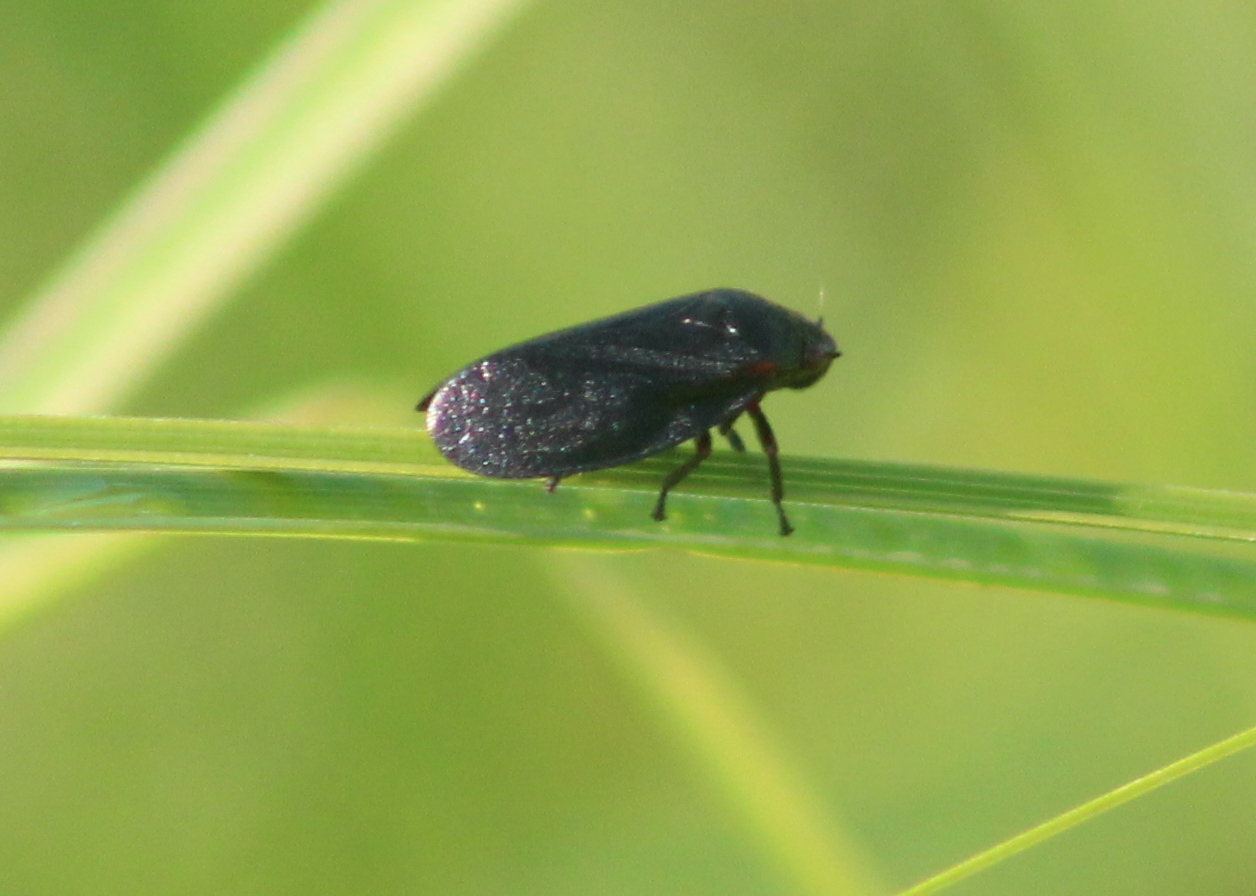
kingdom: Animalia
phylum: Arthropoda
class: Insecta
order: Hemiptera
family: Cercopidae
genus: Prosapia
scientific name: Prosapia ignipectus
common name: Black spittlebug
